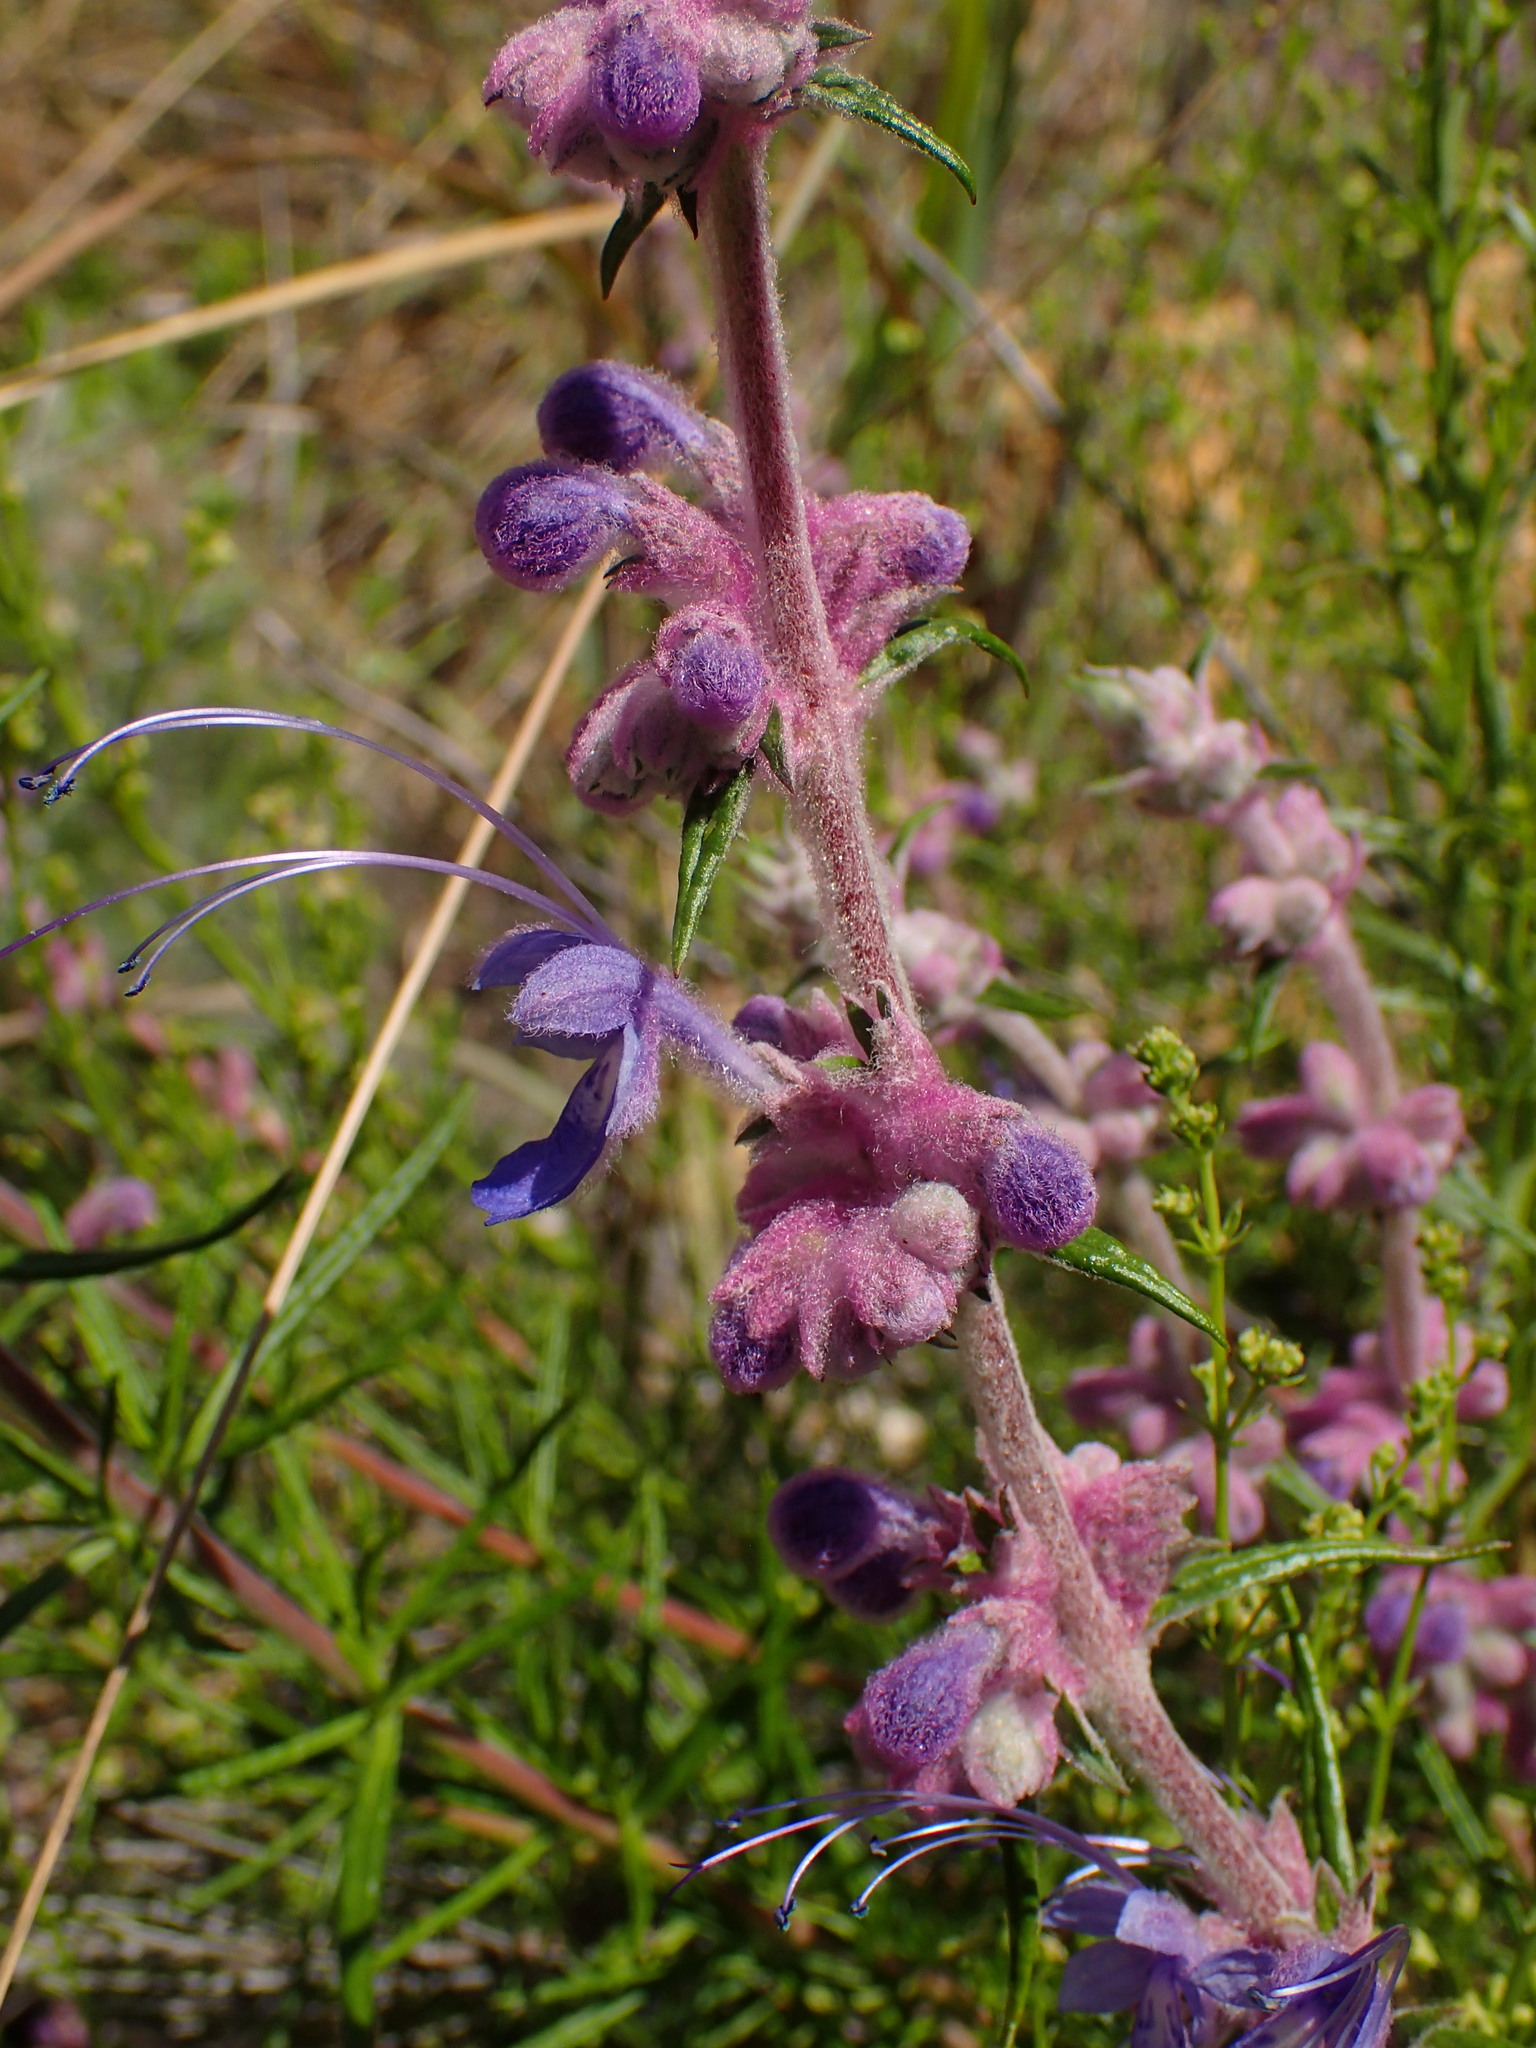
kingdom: Plantae
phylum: Tracheophyta
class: Magnoliopsida
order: Lamiales
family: Lamiaceae
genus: Trichostema
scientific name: Trichostema lanatum
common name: Woolly bluecurls
